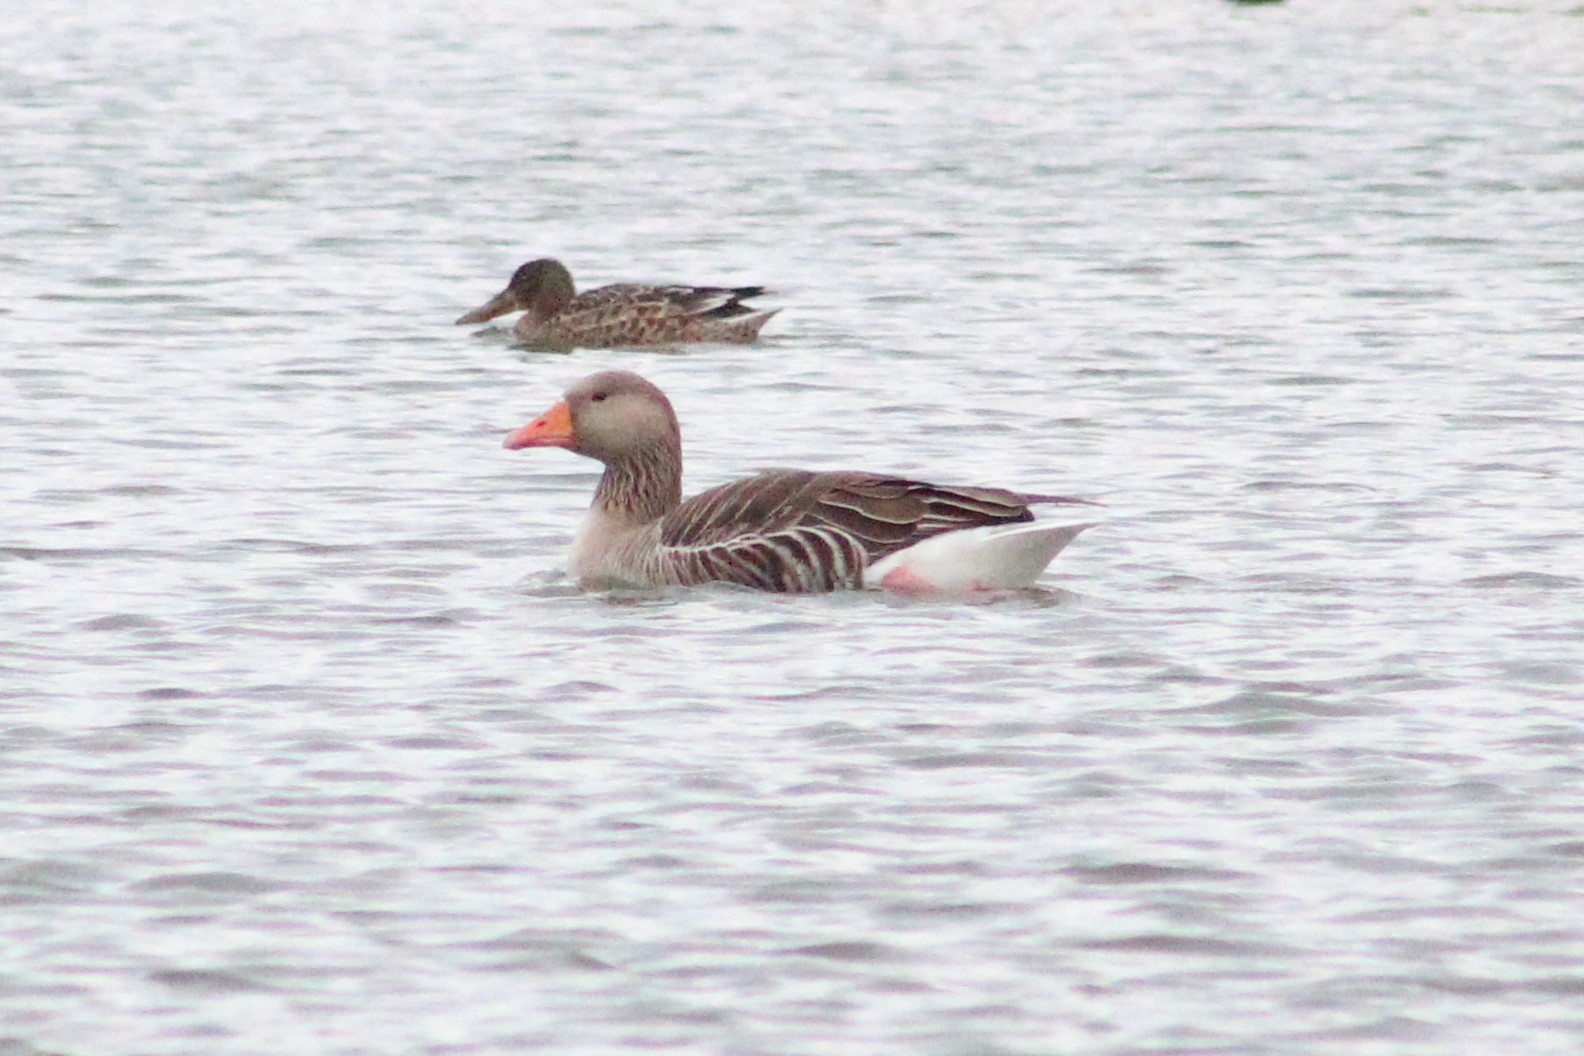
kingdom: Animalia
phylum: Chordata
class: Aves
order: Anseriformes
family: Anatidae
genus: Anser
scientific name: Anser anser
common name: Greylag goose
